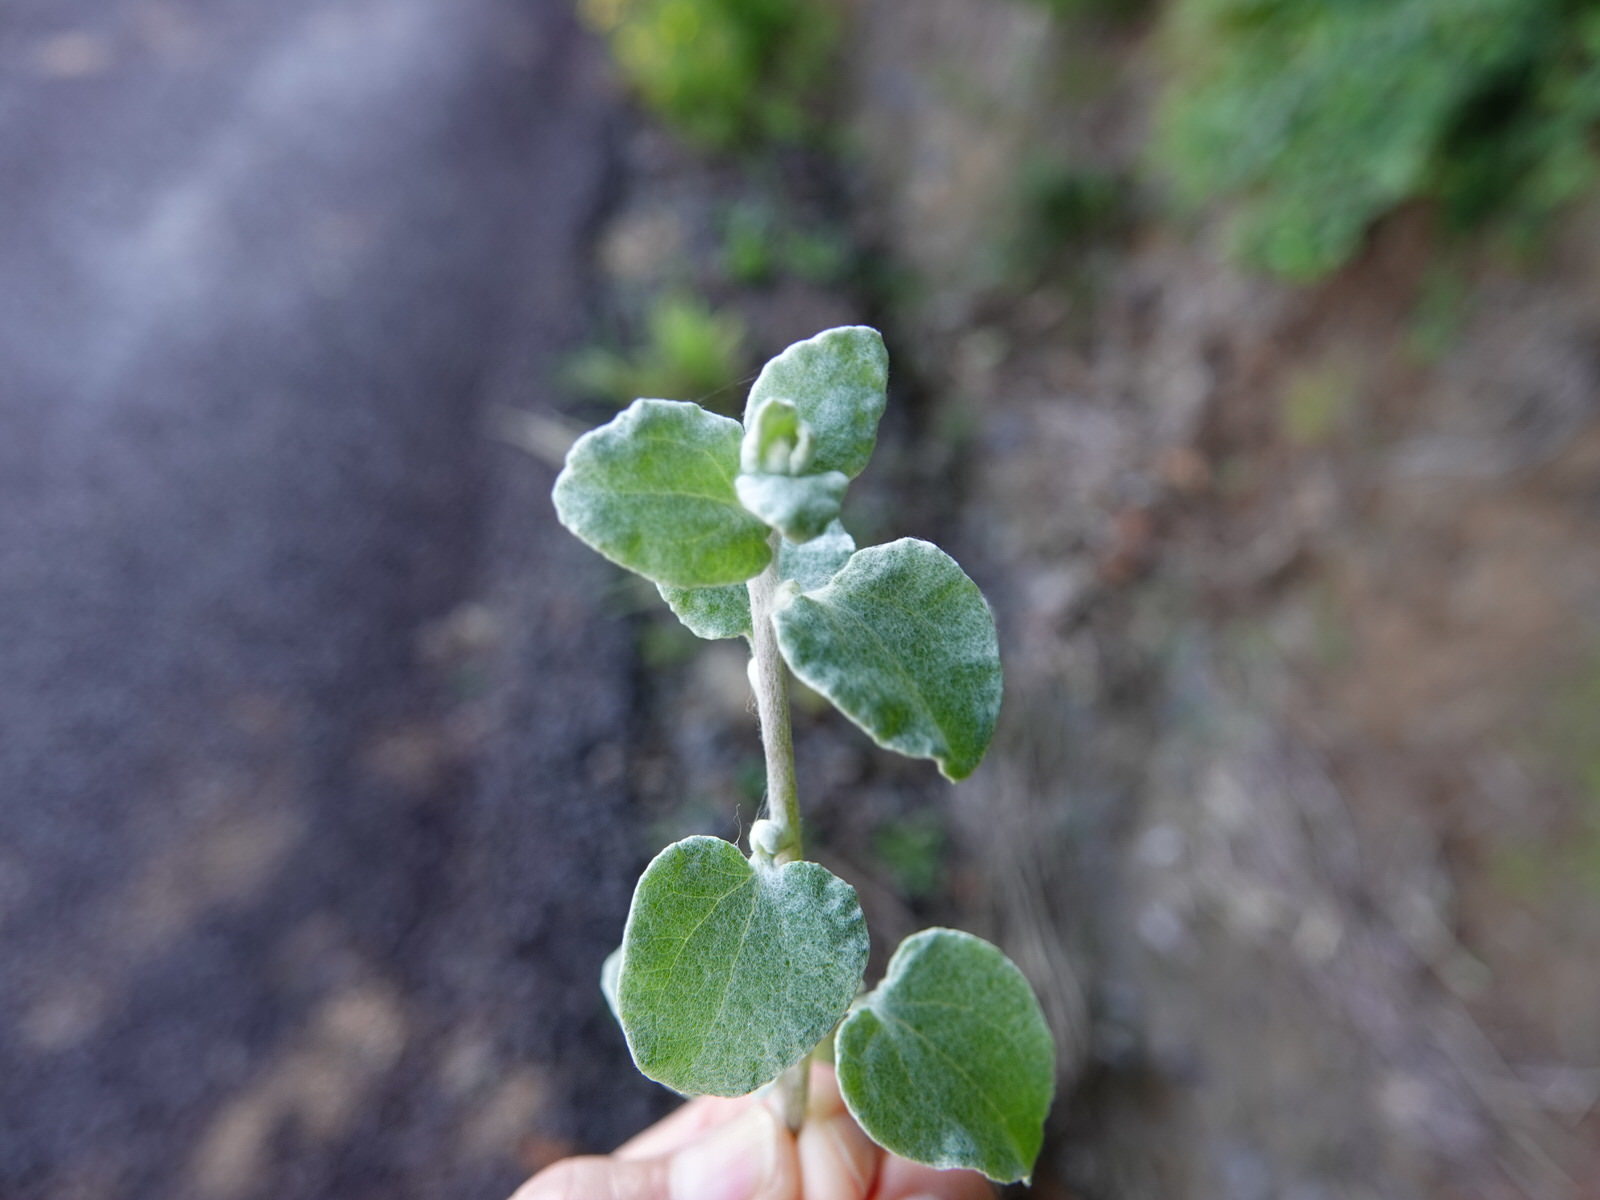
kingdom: Plantae
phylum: Tracheophyta
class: Magnoliopsida
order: Asterales
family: Asteraceae
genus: Helichrysum
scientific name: Helichrysum petiolare
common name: Licorice-plant
